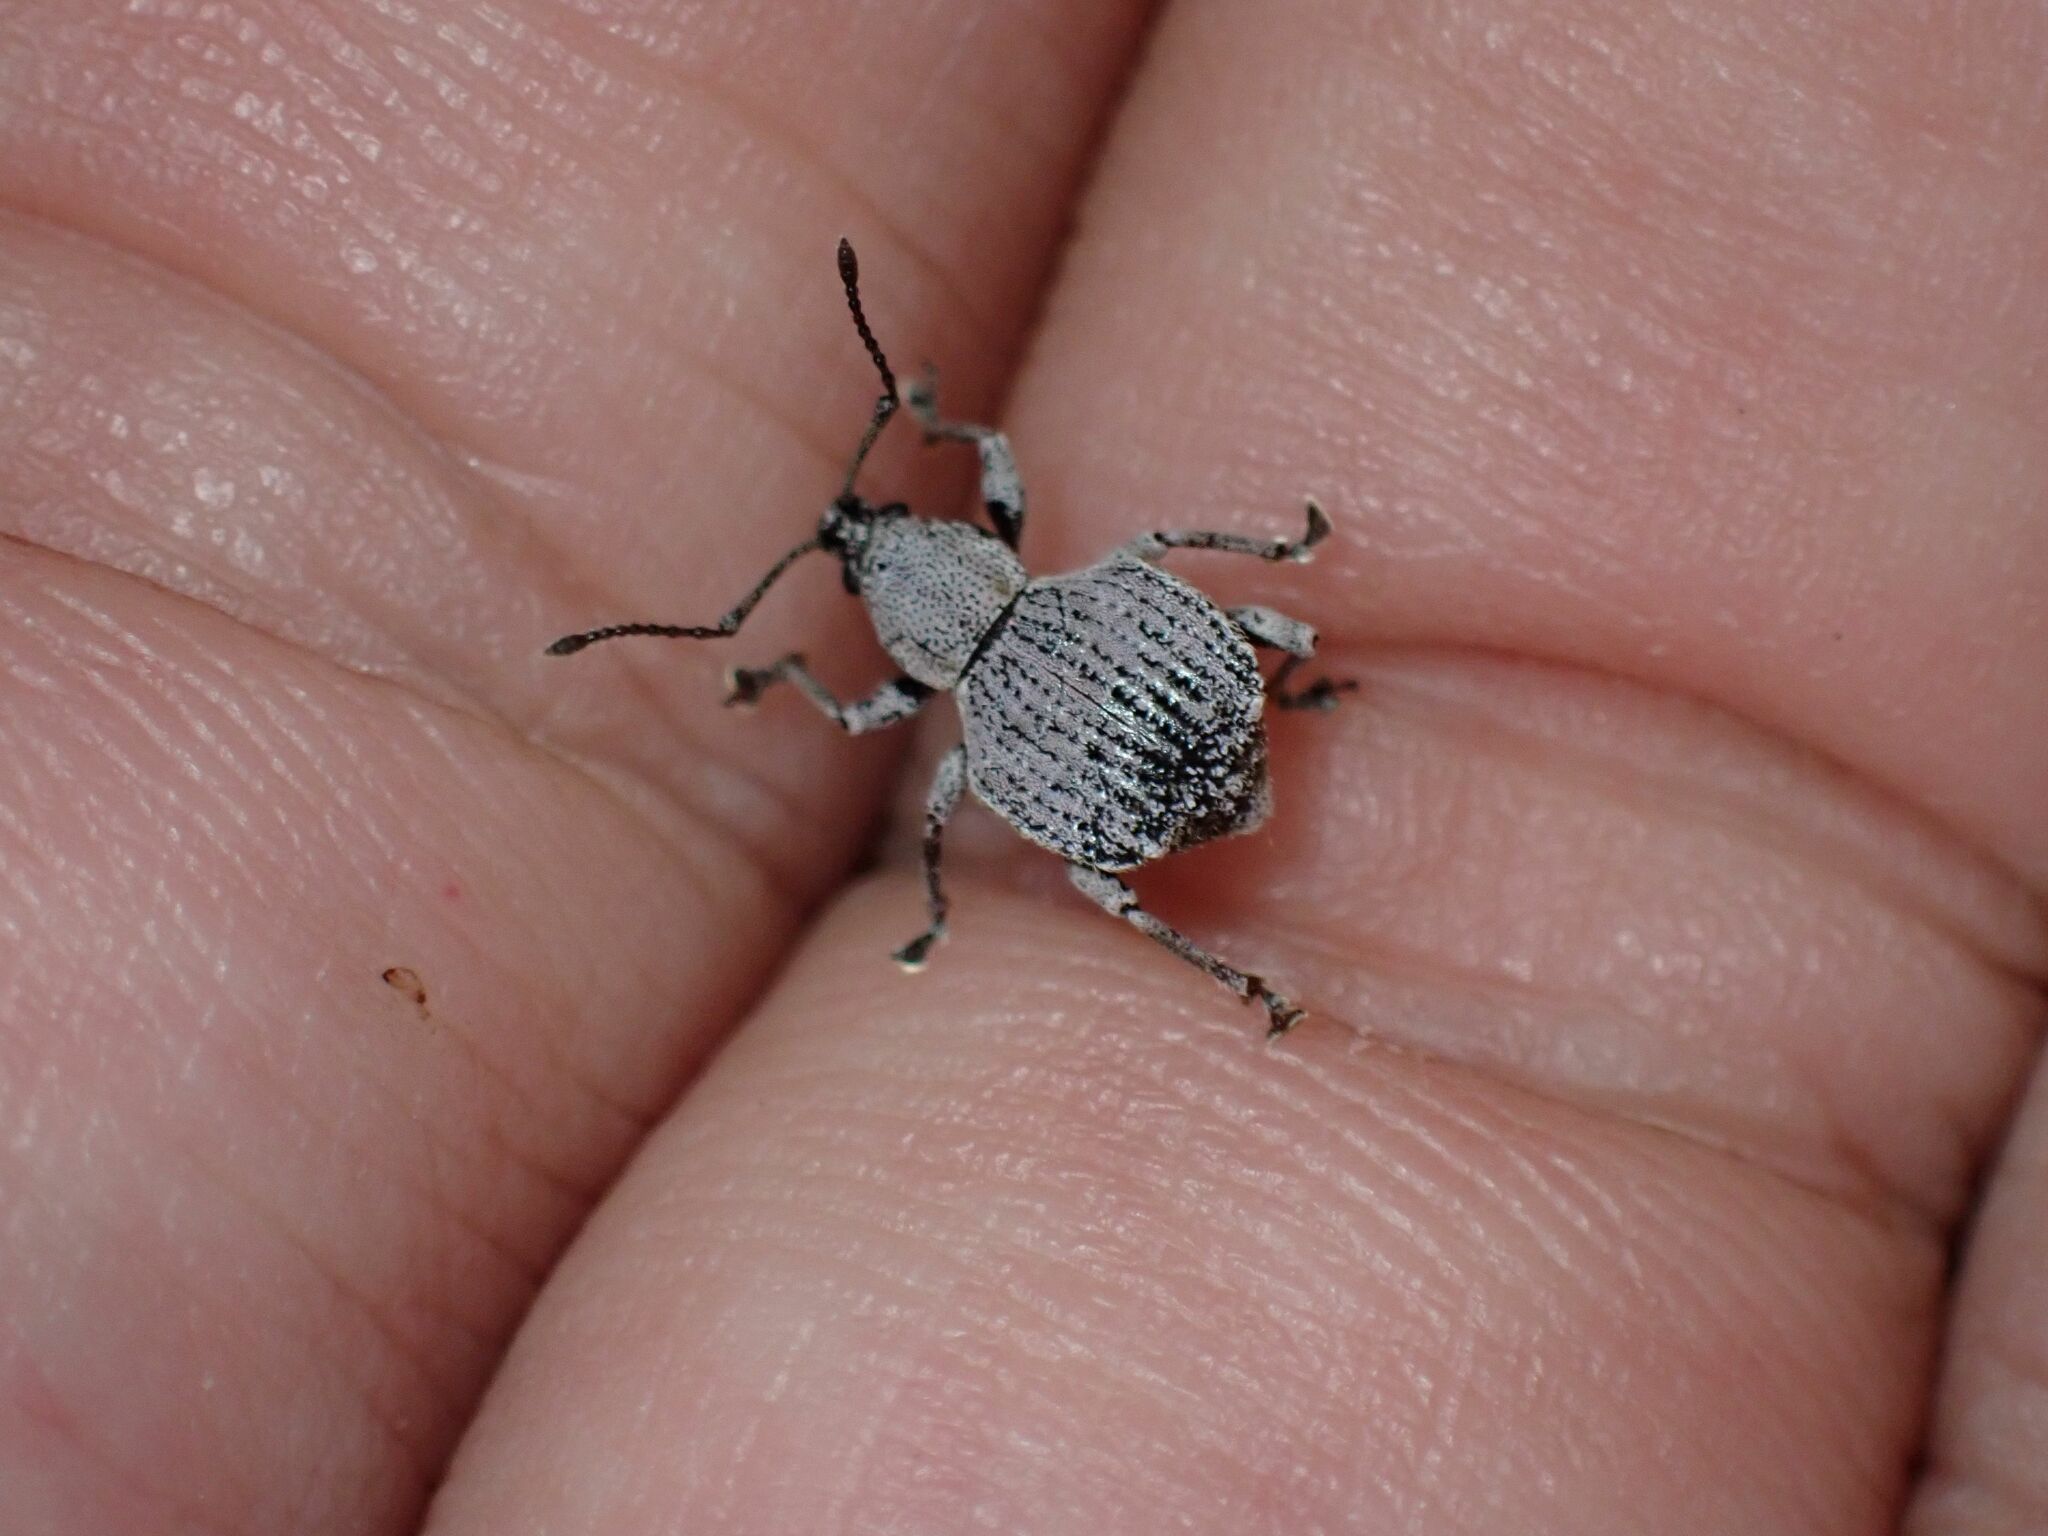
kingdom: Animalia
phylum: Arthropoda
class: Insecta
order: Coleoptera
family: Curculionidae
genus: Platysimus
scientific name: Platysimus septentrionalis
